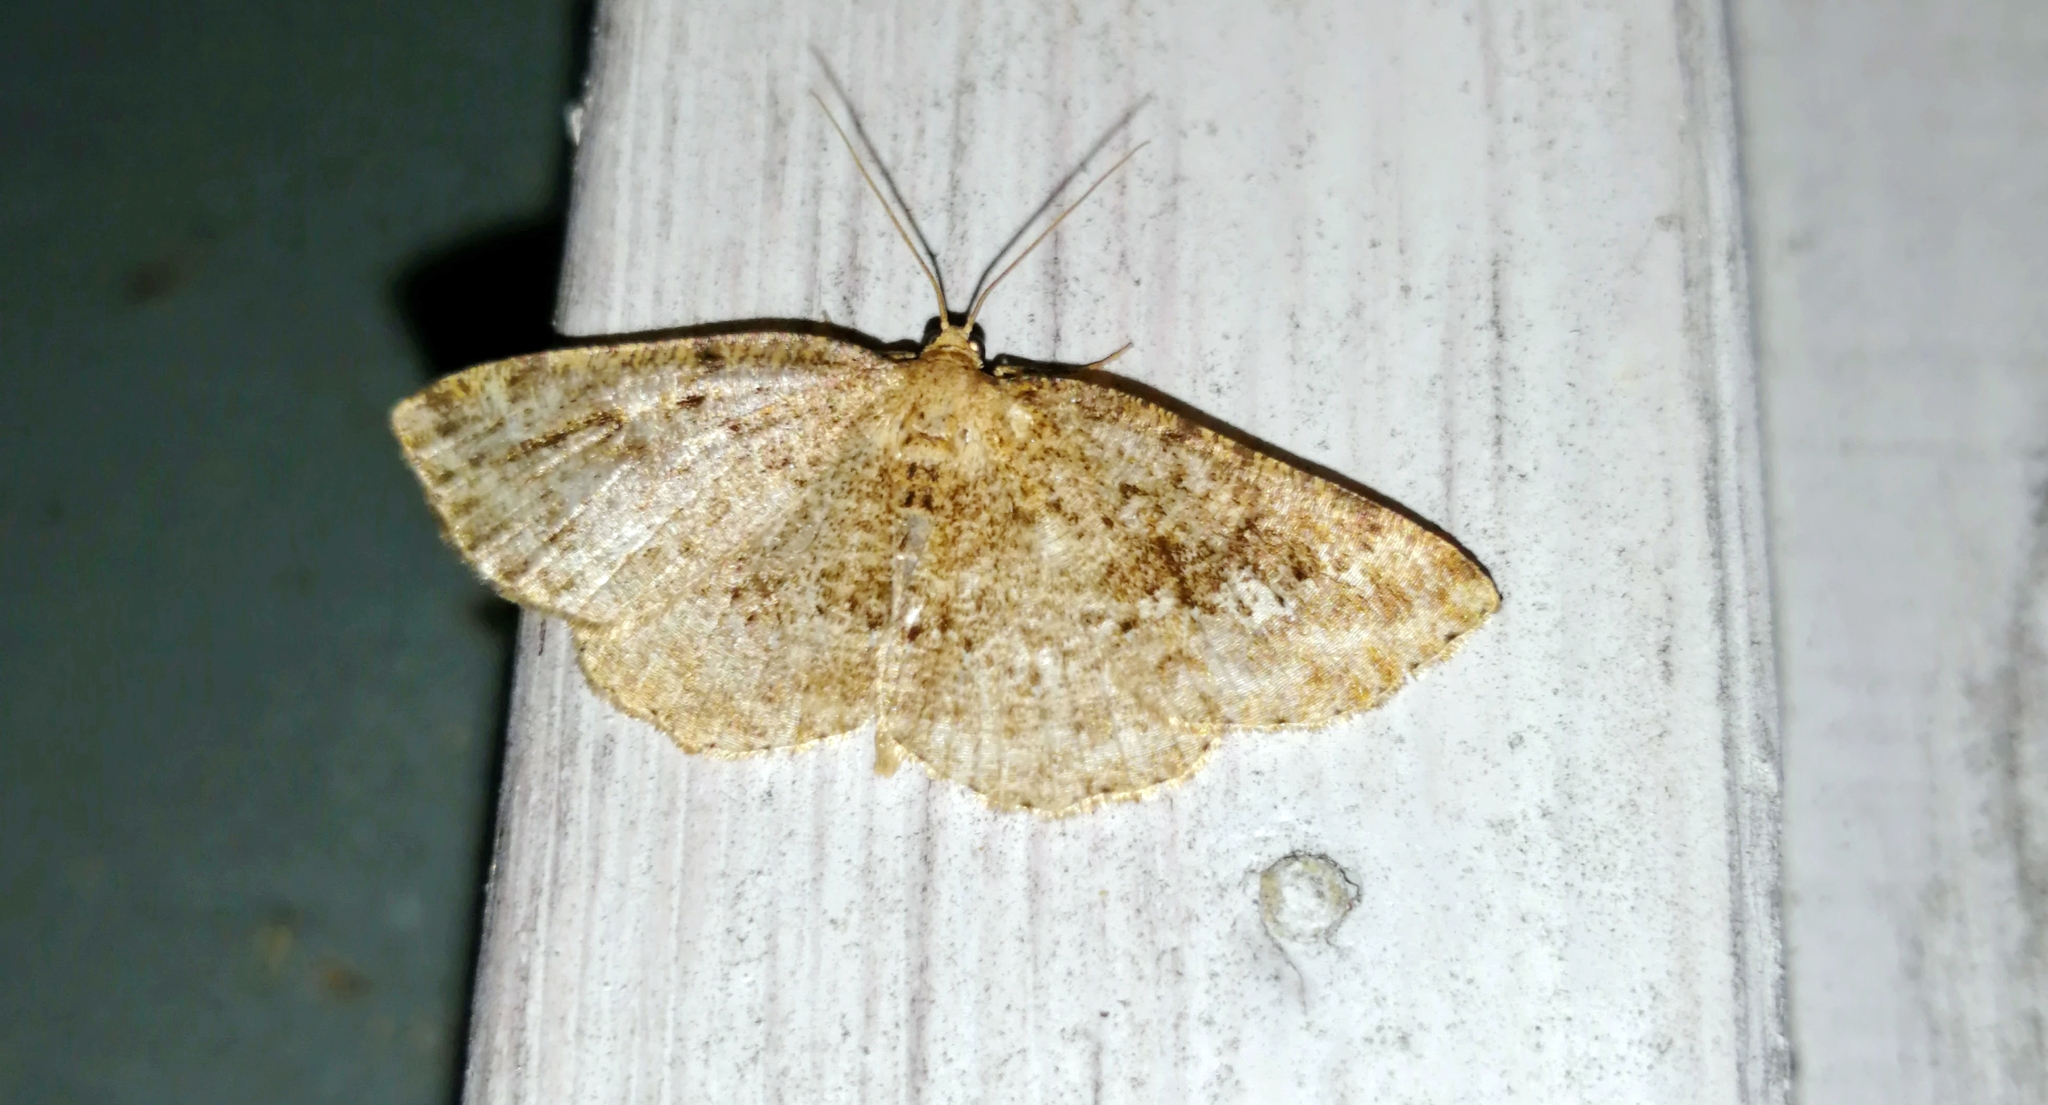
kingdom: Animalia
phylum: Arthropoda
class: Insecta
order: Lepidoptera
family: Geometridae
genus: Homochlodes
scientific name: Homochlodes fritillaria
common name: Pale homochlodes
